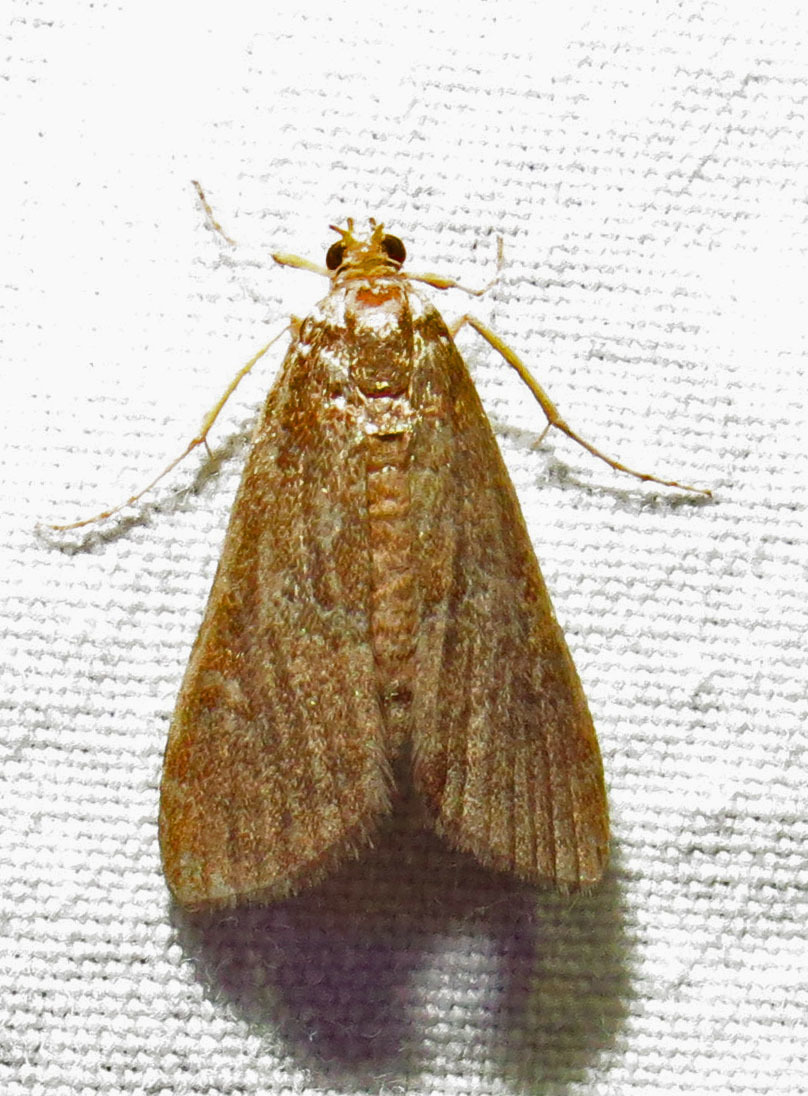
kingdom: Animalia
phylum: Arthropoda
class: Insecta
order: Lepidoptera
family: Crambidae
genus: Elophila
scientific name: Elophila gyralis
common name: Waterlily borer moth
